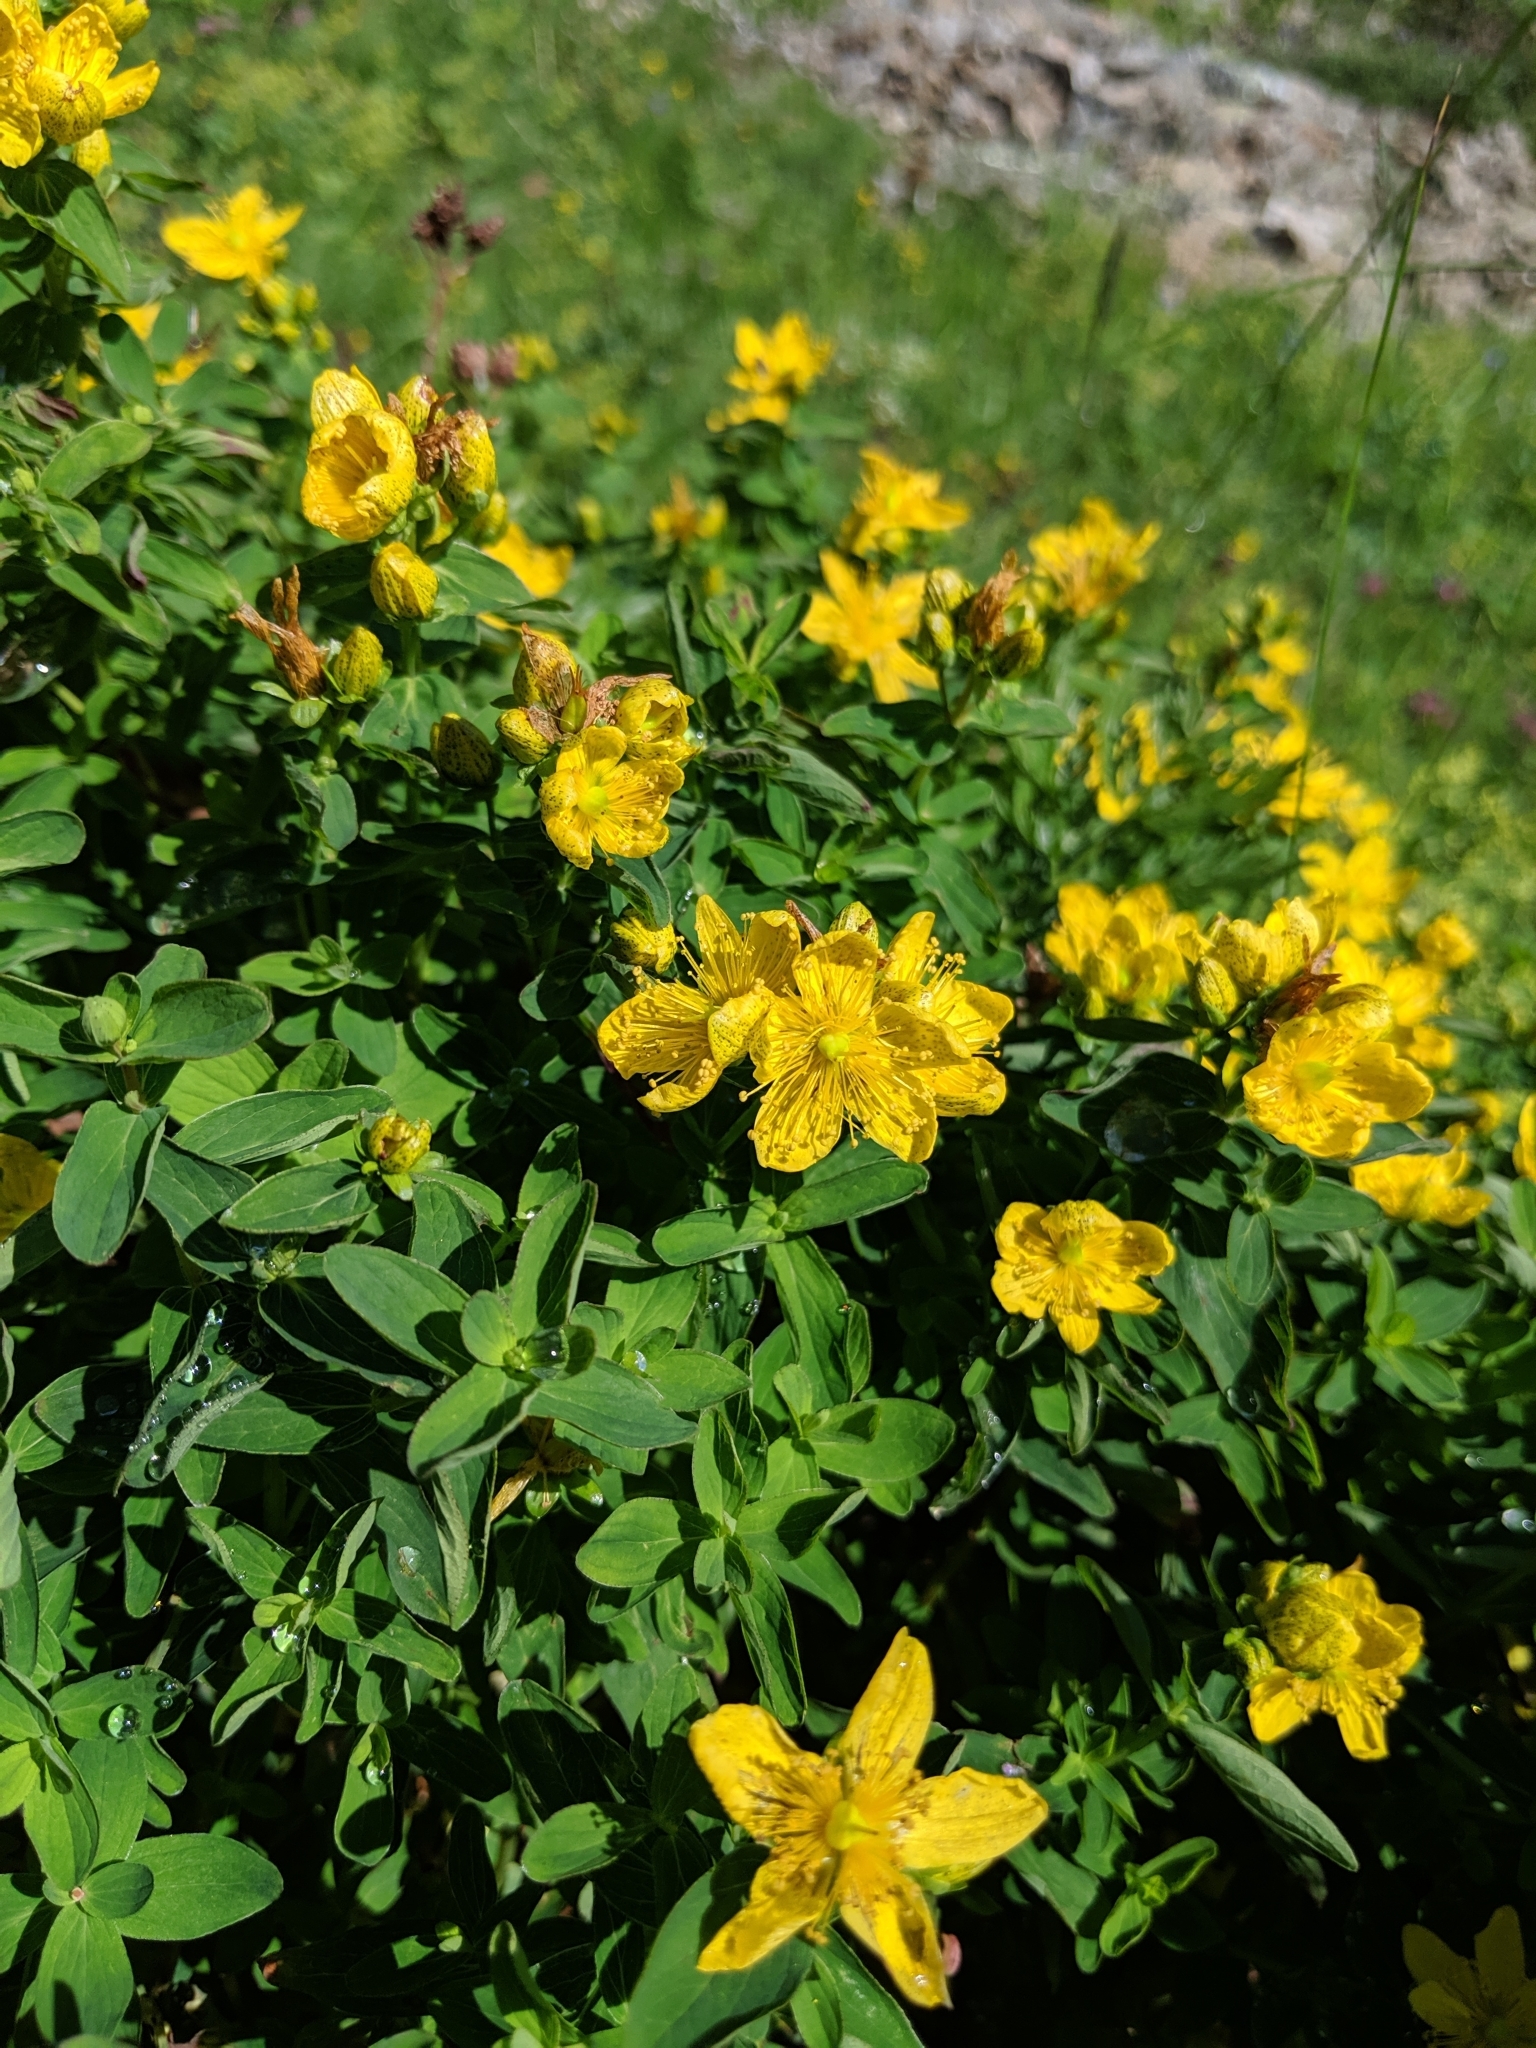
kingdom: Plantae
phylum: Tracheophyta
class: Magnoliopsida
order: Malpighiales
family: Hypericaceae
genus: Hypericum
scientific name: Hypericum maculatum
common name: Imperforate st. john's-wort
